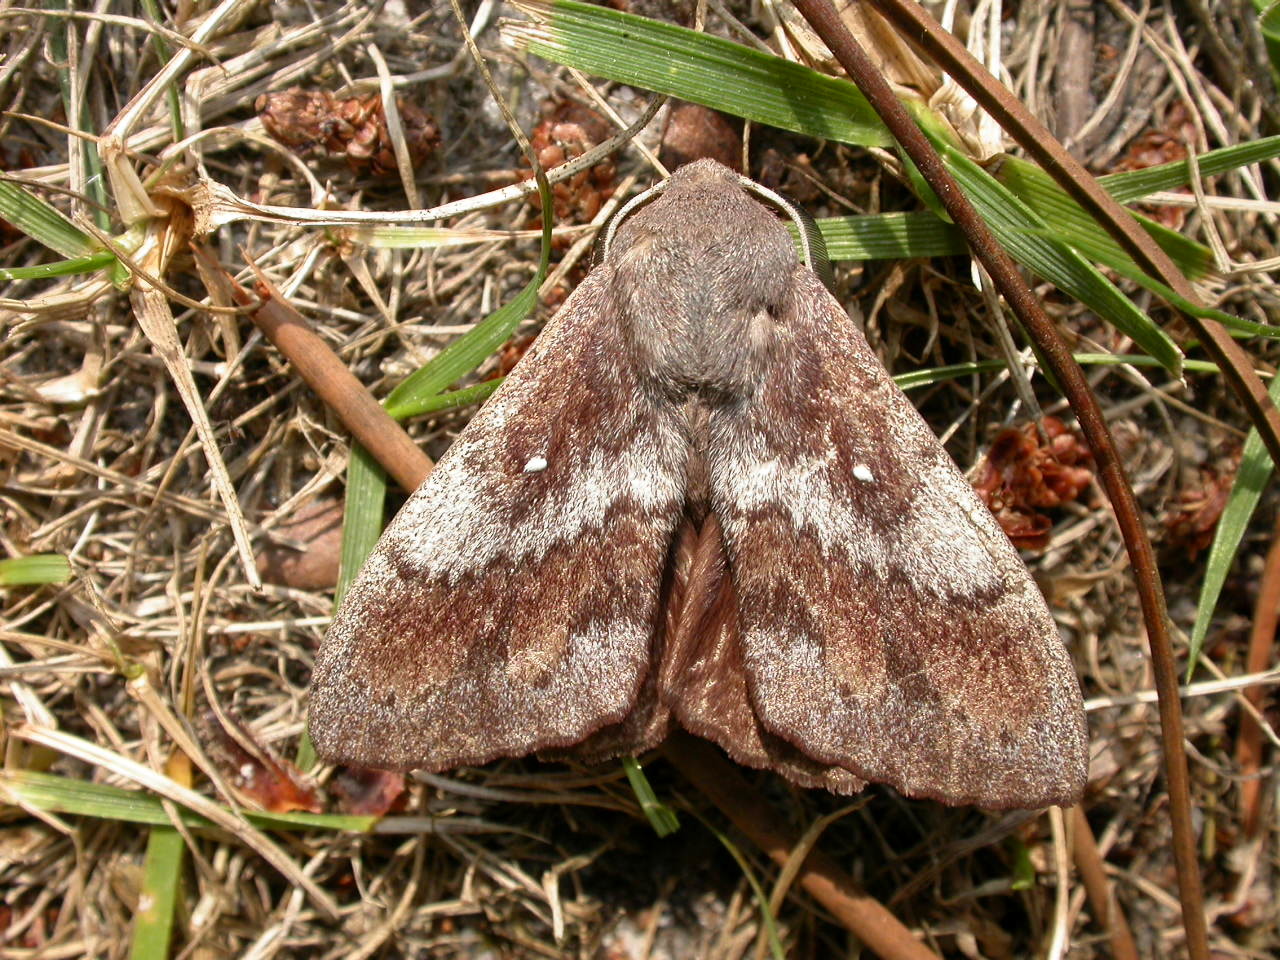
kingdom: Animalia
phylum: Arthropoda
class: Insecta
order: Lepidoptera
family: Lasiocampidae
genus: Dendrolimus
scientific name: Dendrolimus pini
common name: Pine-tree lappet
